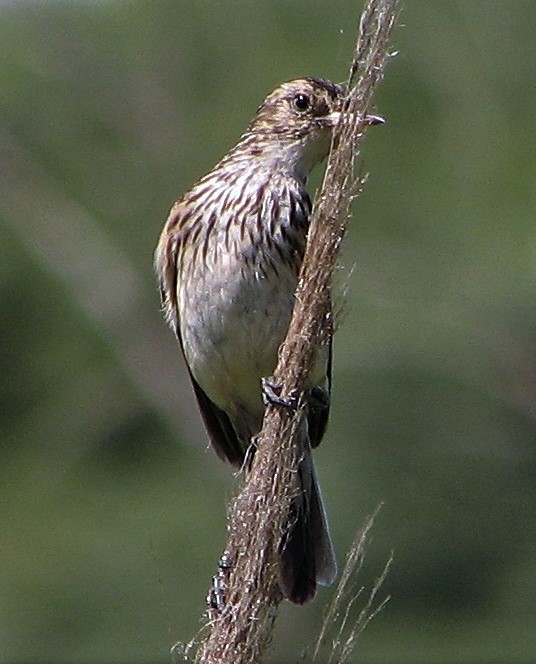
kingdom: Animalia
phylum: Chordata
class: Aves
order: Passeriformes
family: Tyrannidae
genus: Hymenops
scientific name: Hymenops perspicillatus
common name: Spectacled tyrant
